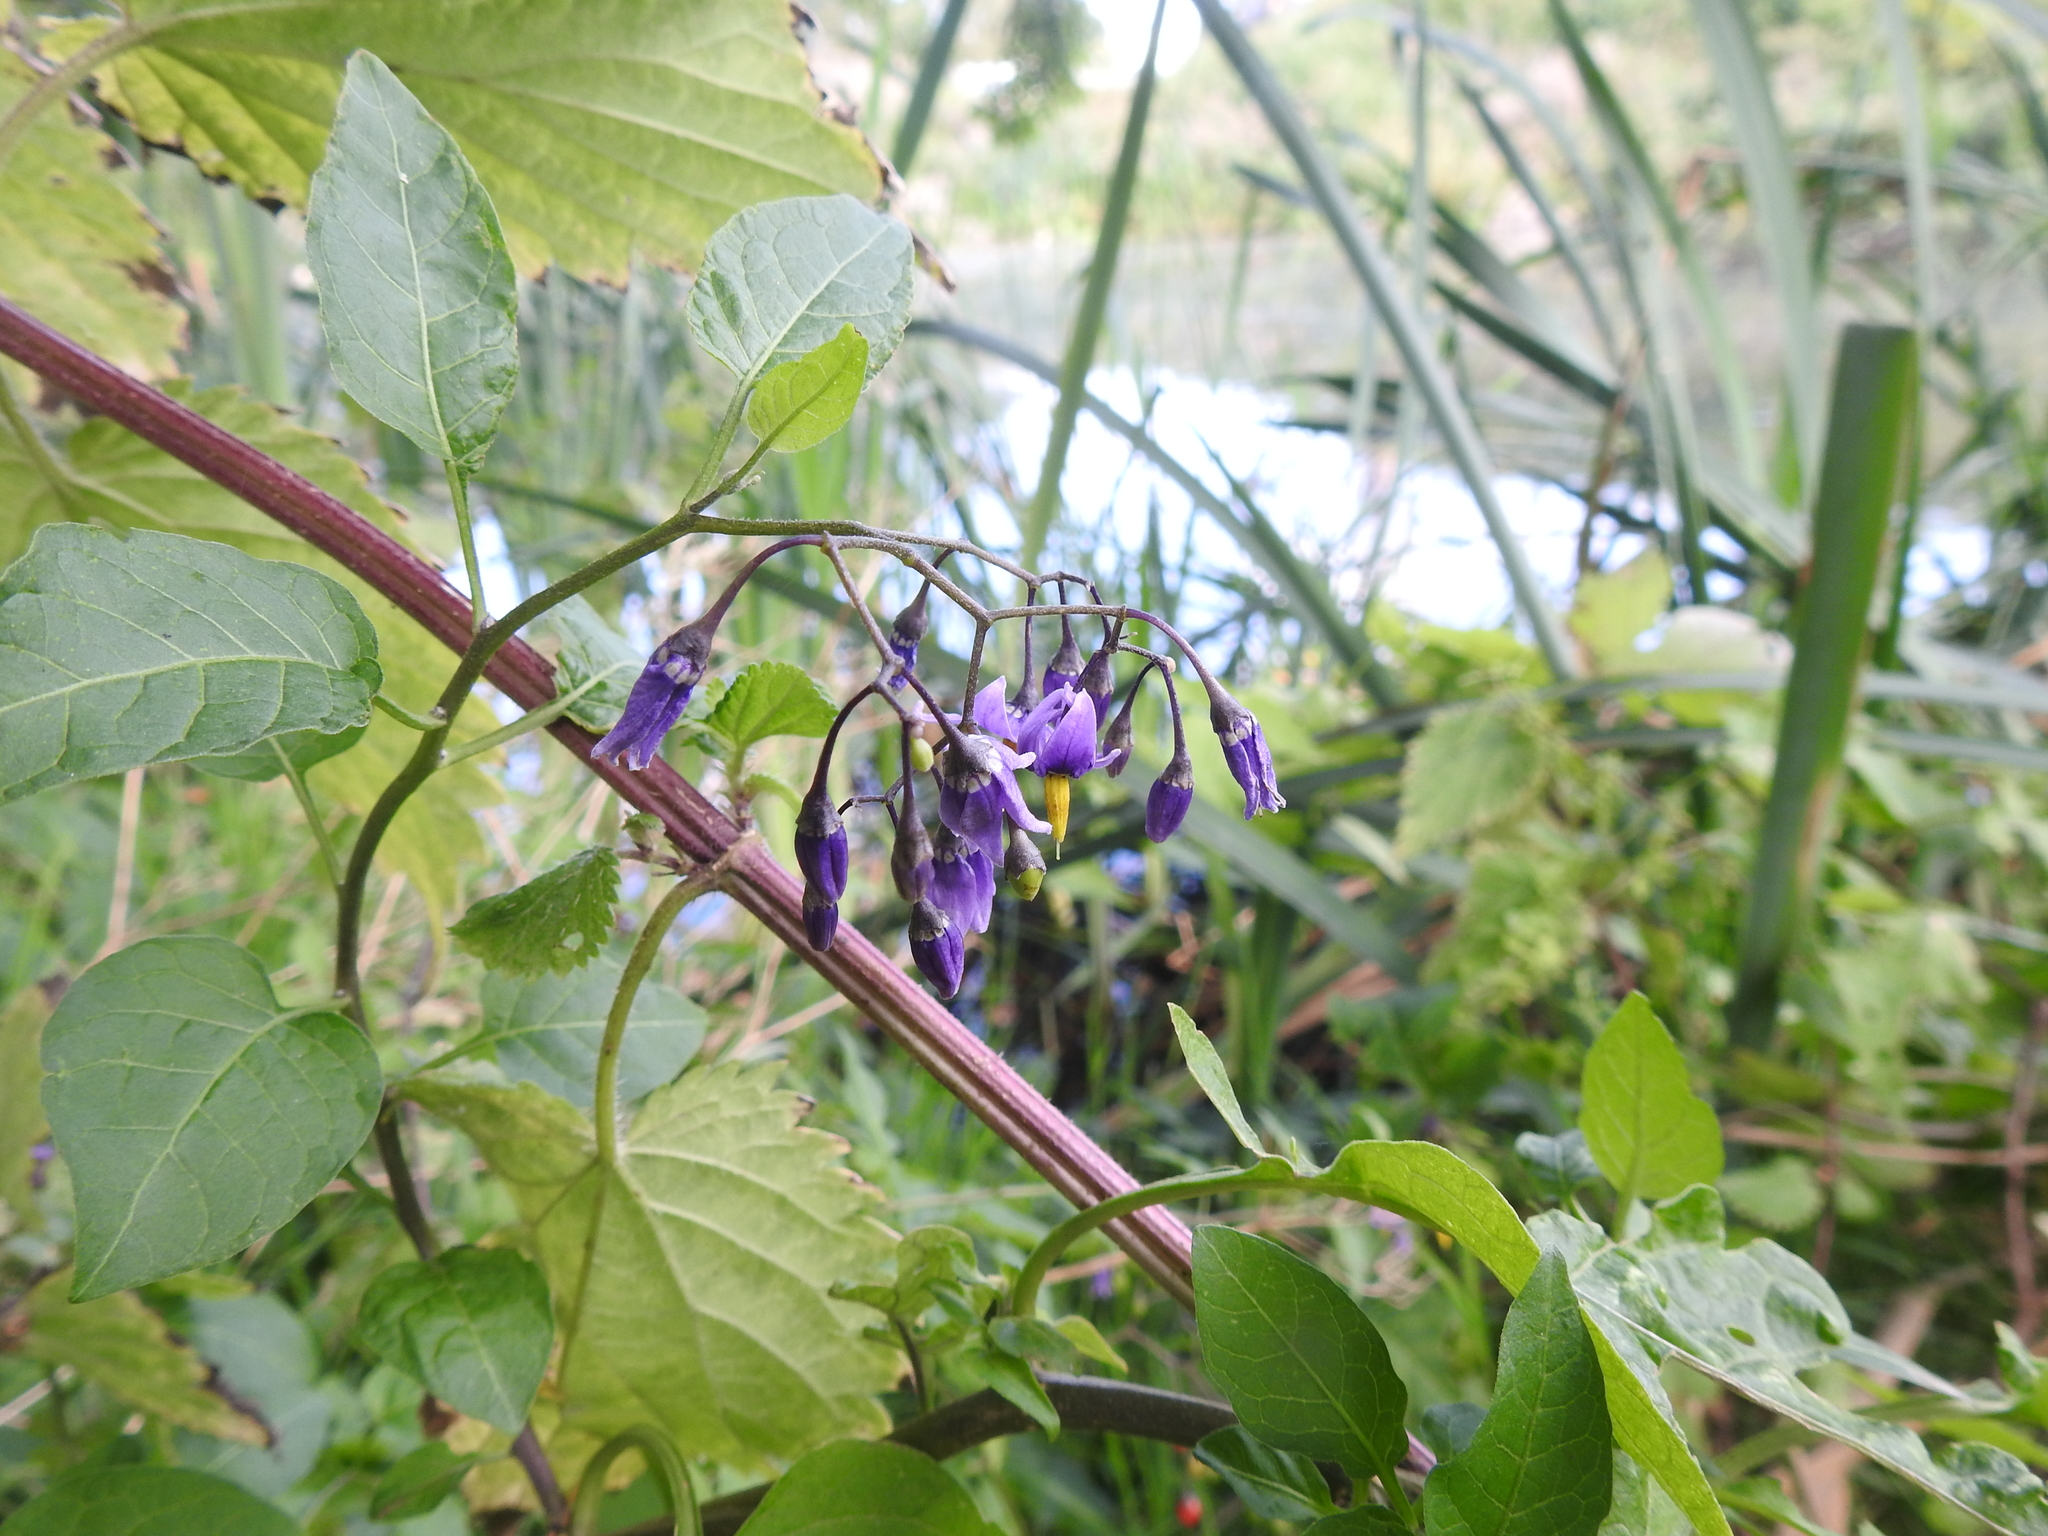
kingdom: Plantae
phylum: Tracheophyta
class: Magnoliopsida
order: Solanales
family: Solanaceae
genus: Solanum
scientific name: Solanum dulcamara
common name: Climbing nightshade
